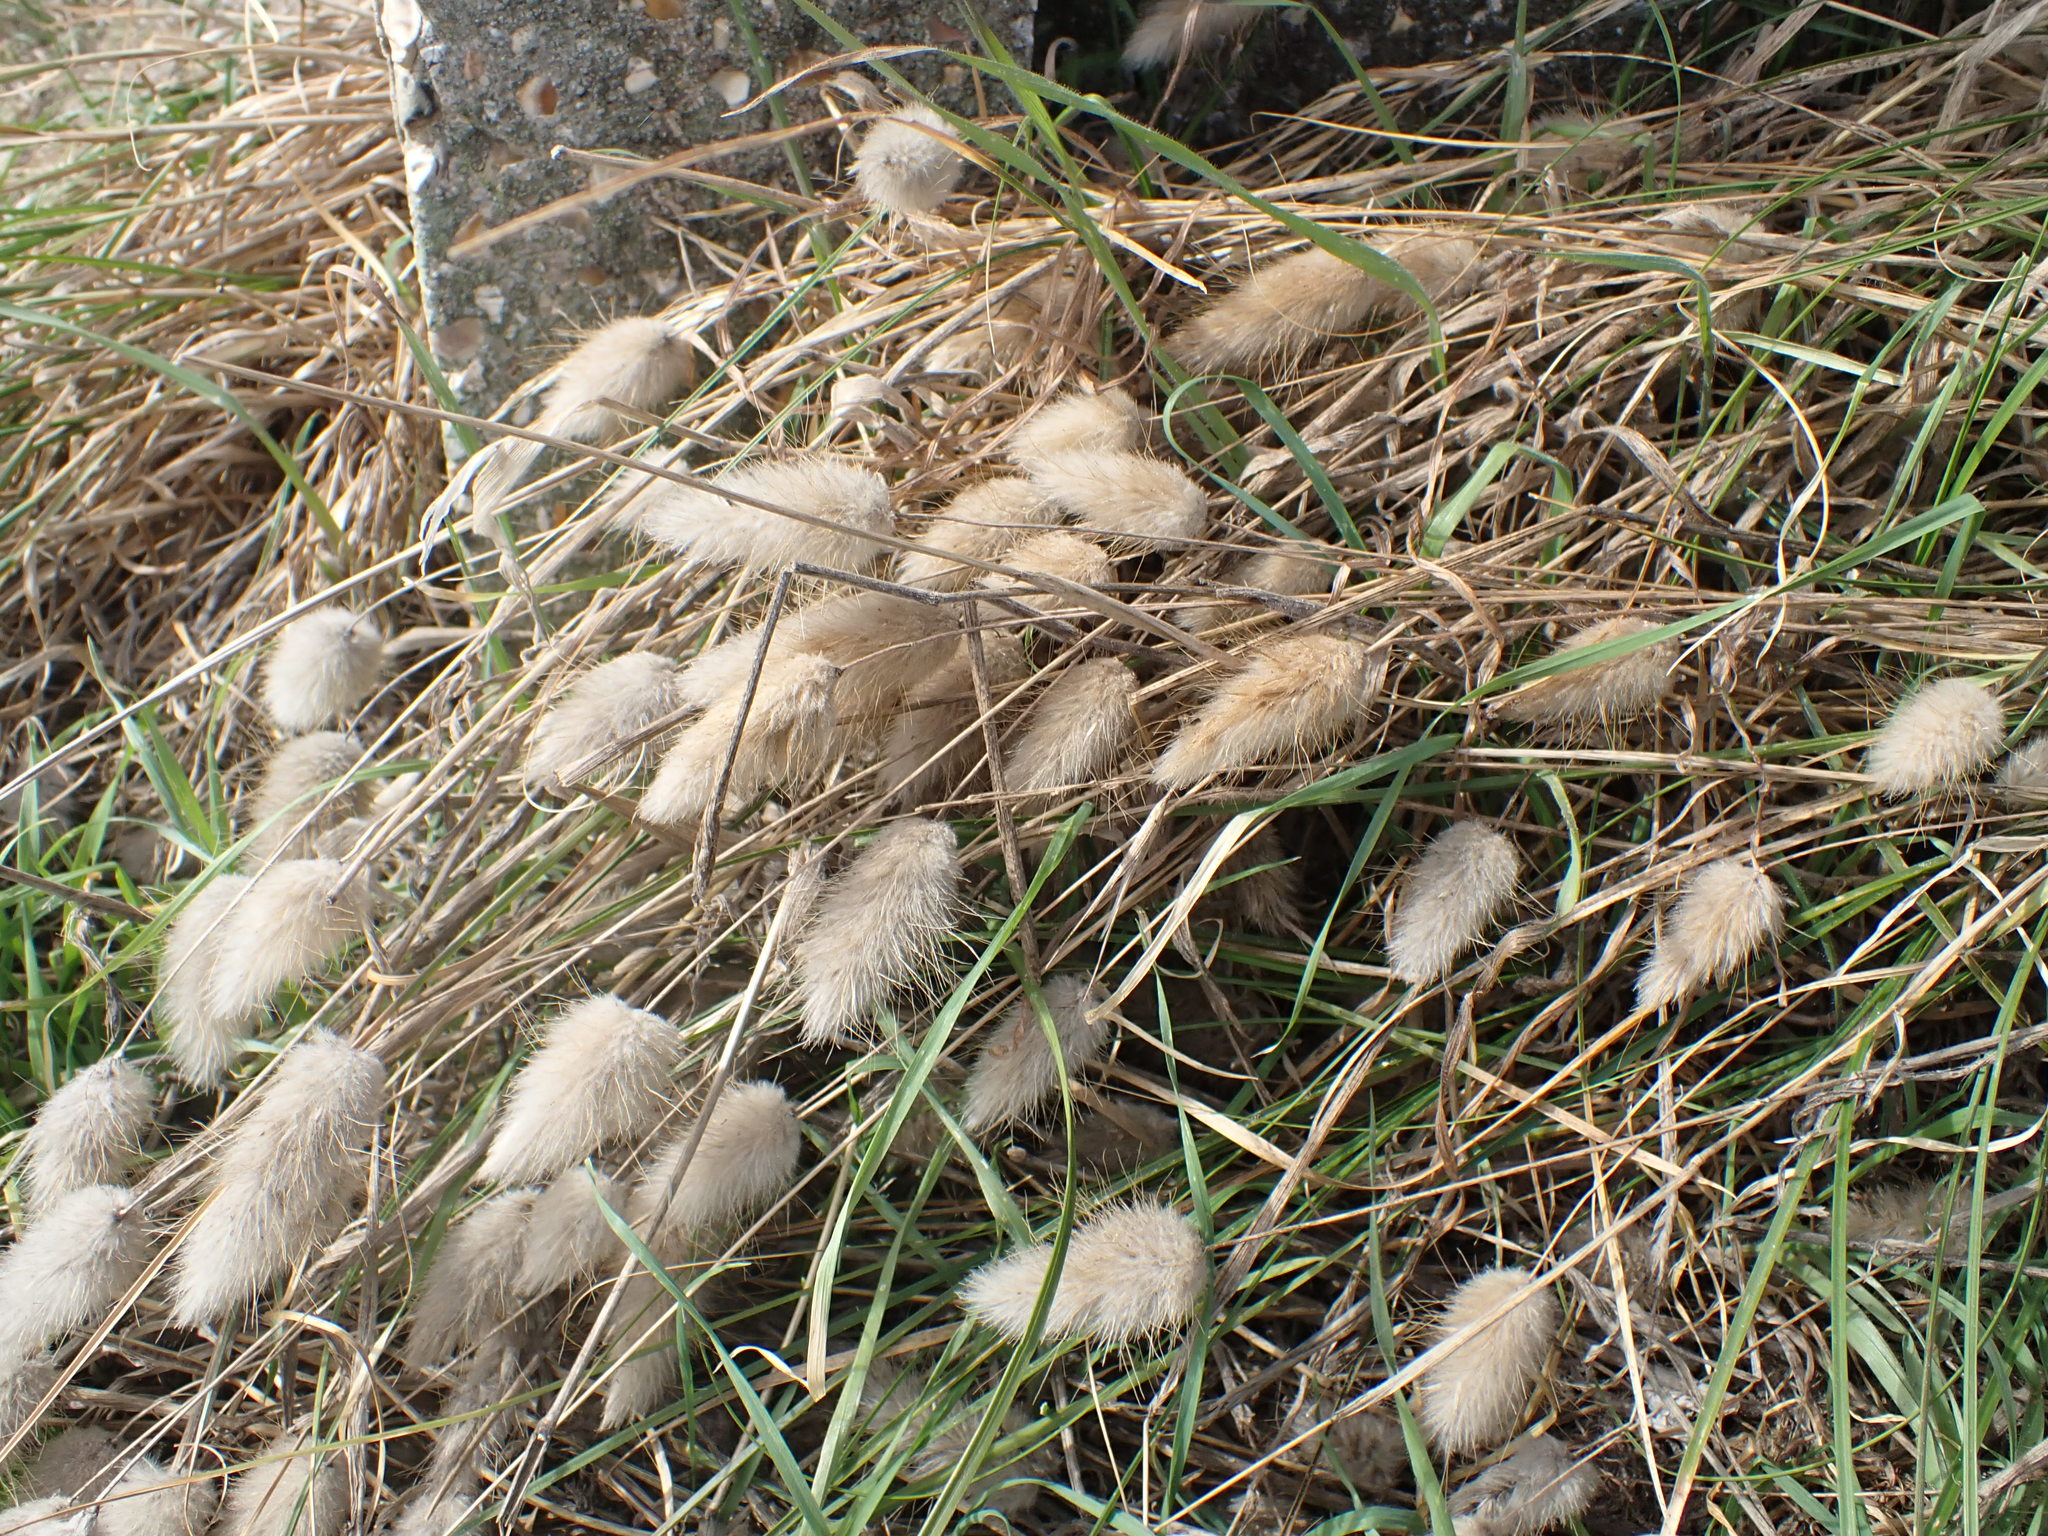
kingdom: Plantae
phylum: Tracheophyta
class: Liliopsida
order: Poales
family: Poaceae
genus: Lagurus
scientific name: Lagurus ovatus
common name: Hare's-tail
